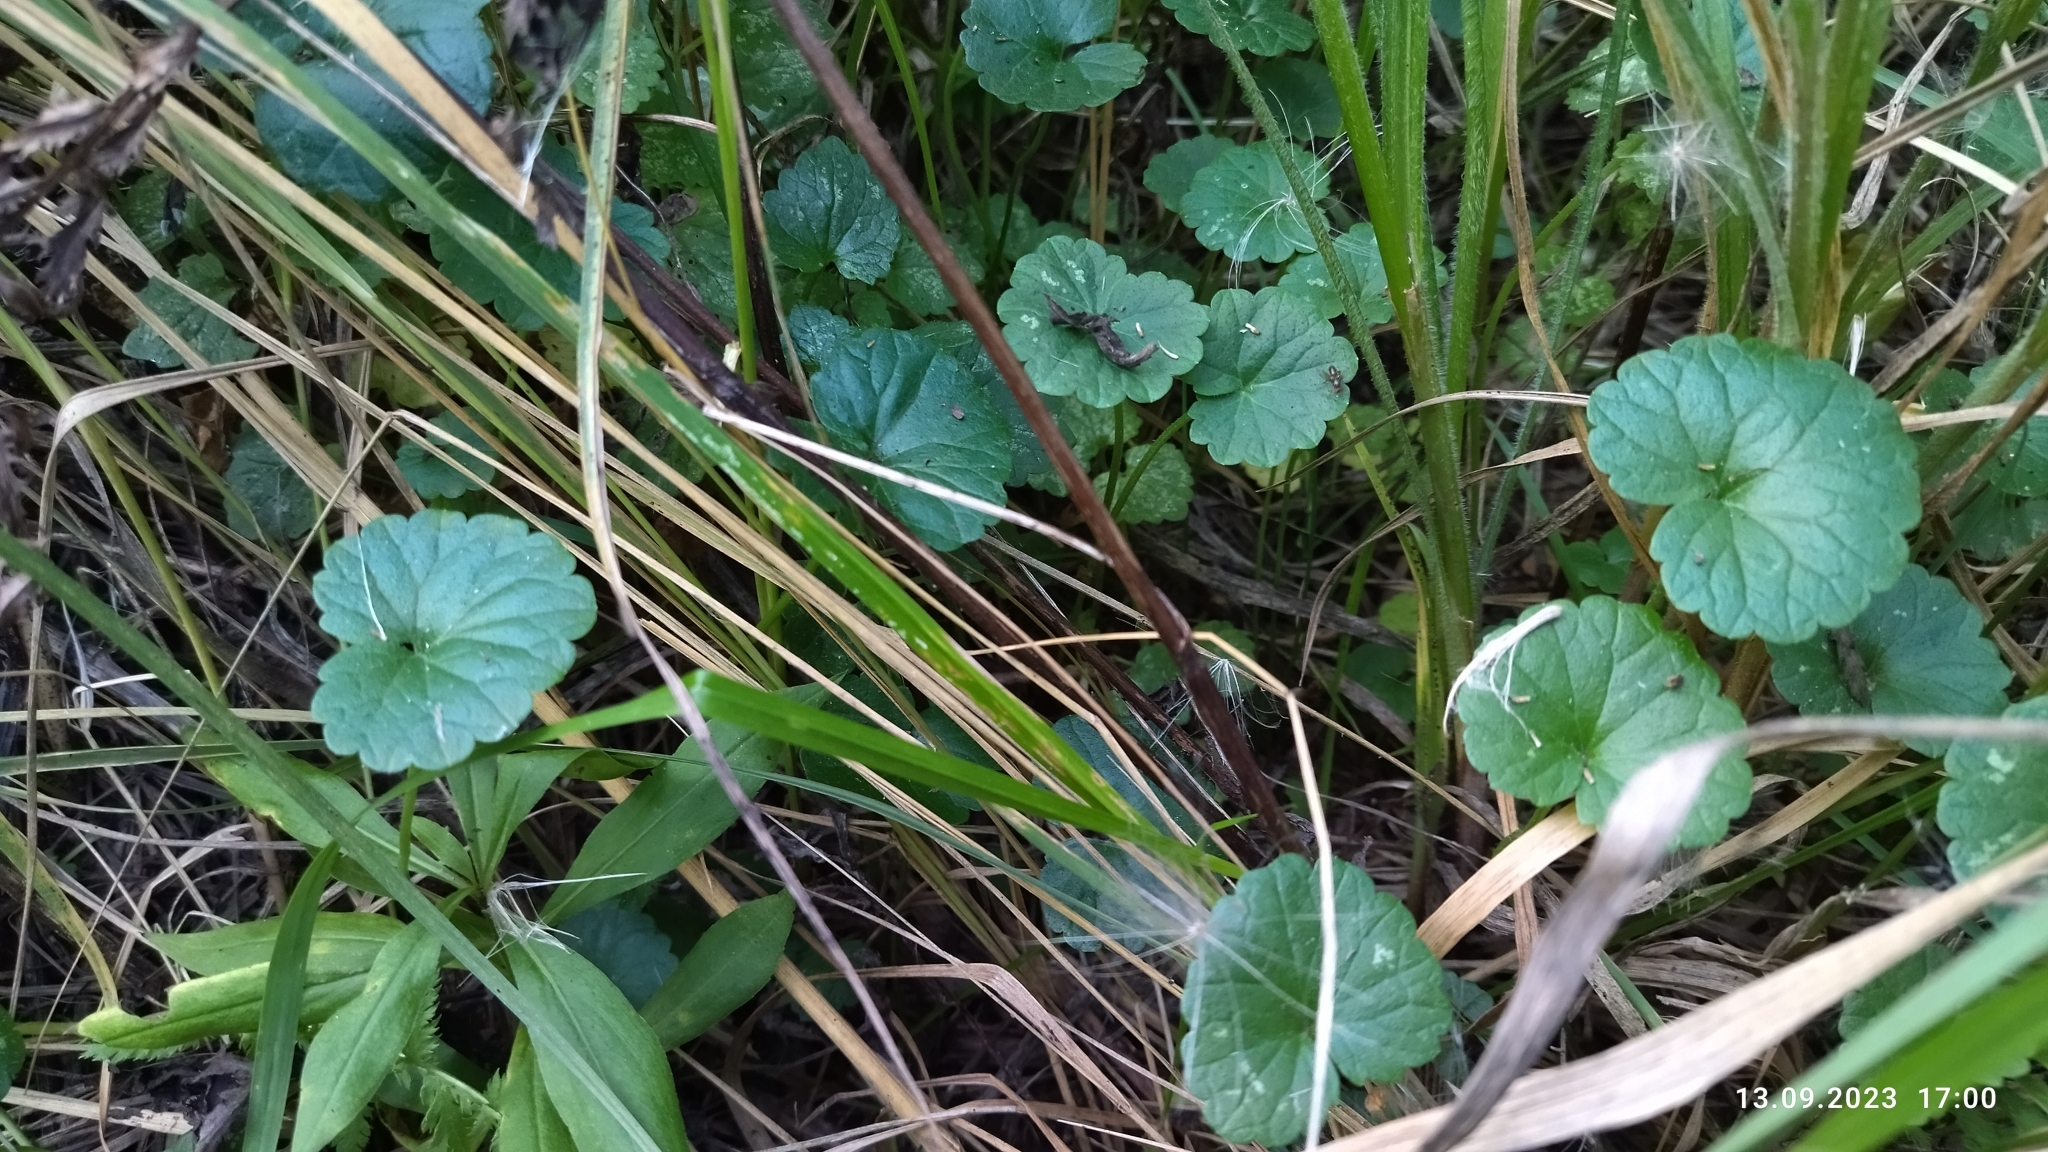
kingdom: Plantae
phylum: Tracheophyta
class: Magnoliopsida
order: Lamiales
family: Lamiaceae
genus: Glechoma
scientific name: Glechoma hederacea
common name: Ground ivy
